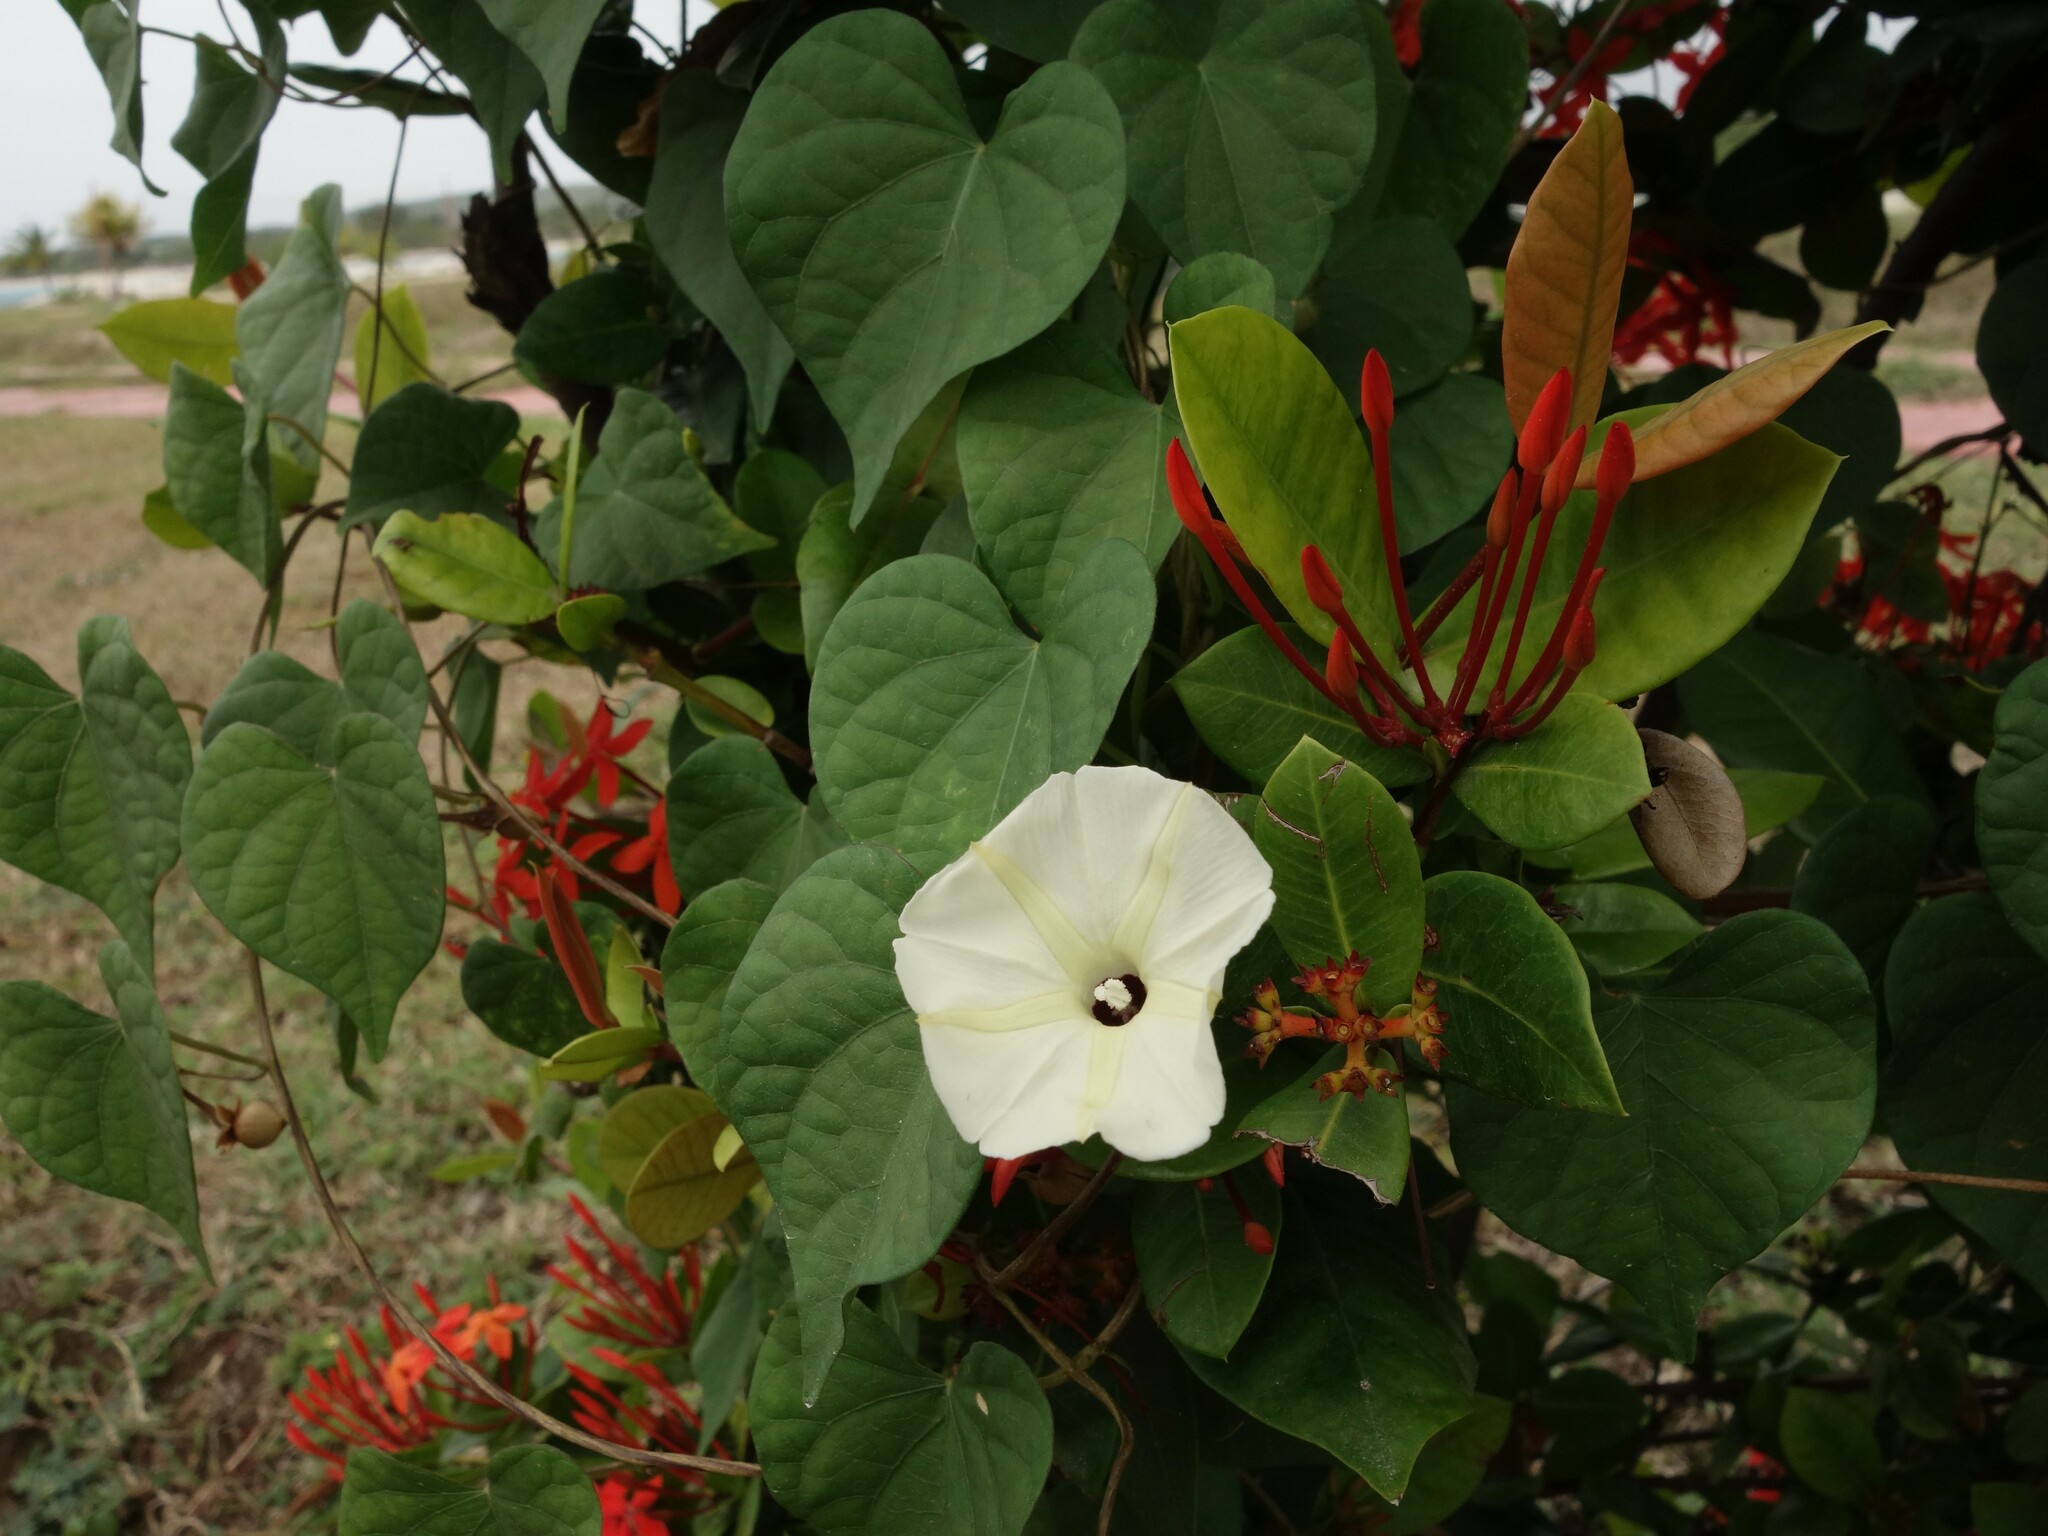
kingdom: Plantae
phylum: Tracheophyta
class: Magnoliopsida
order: Solanales
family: Convolvulaceae
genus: Ipomoea
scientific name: Ipomoea obscura
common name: Obscure morning-glory
